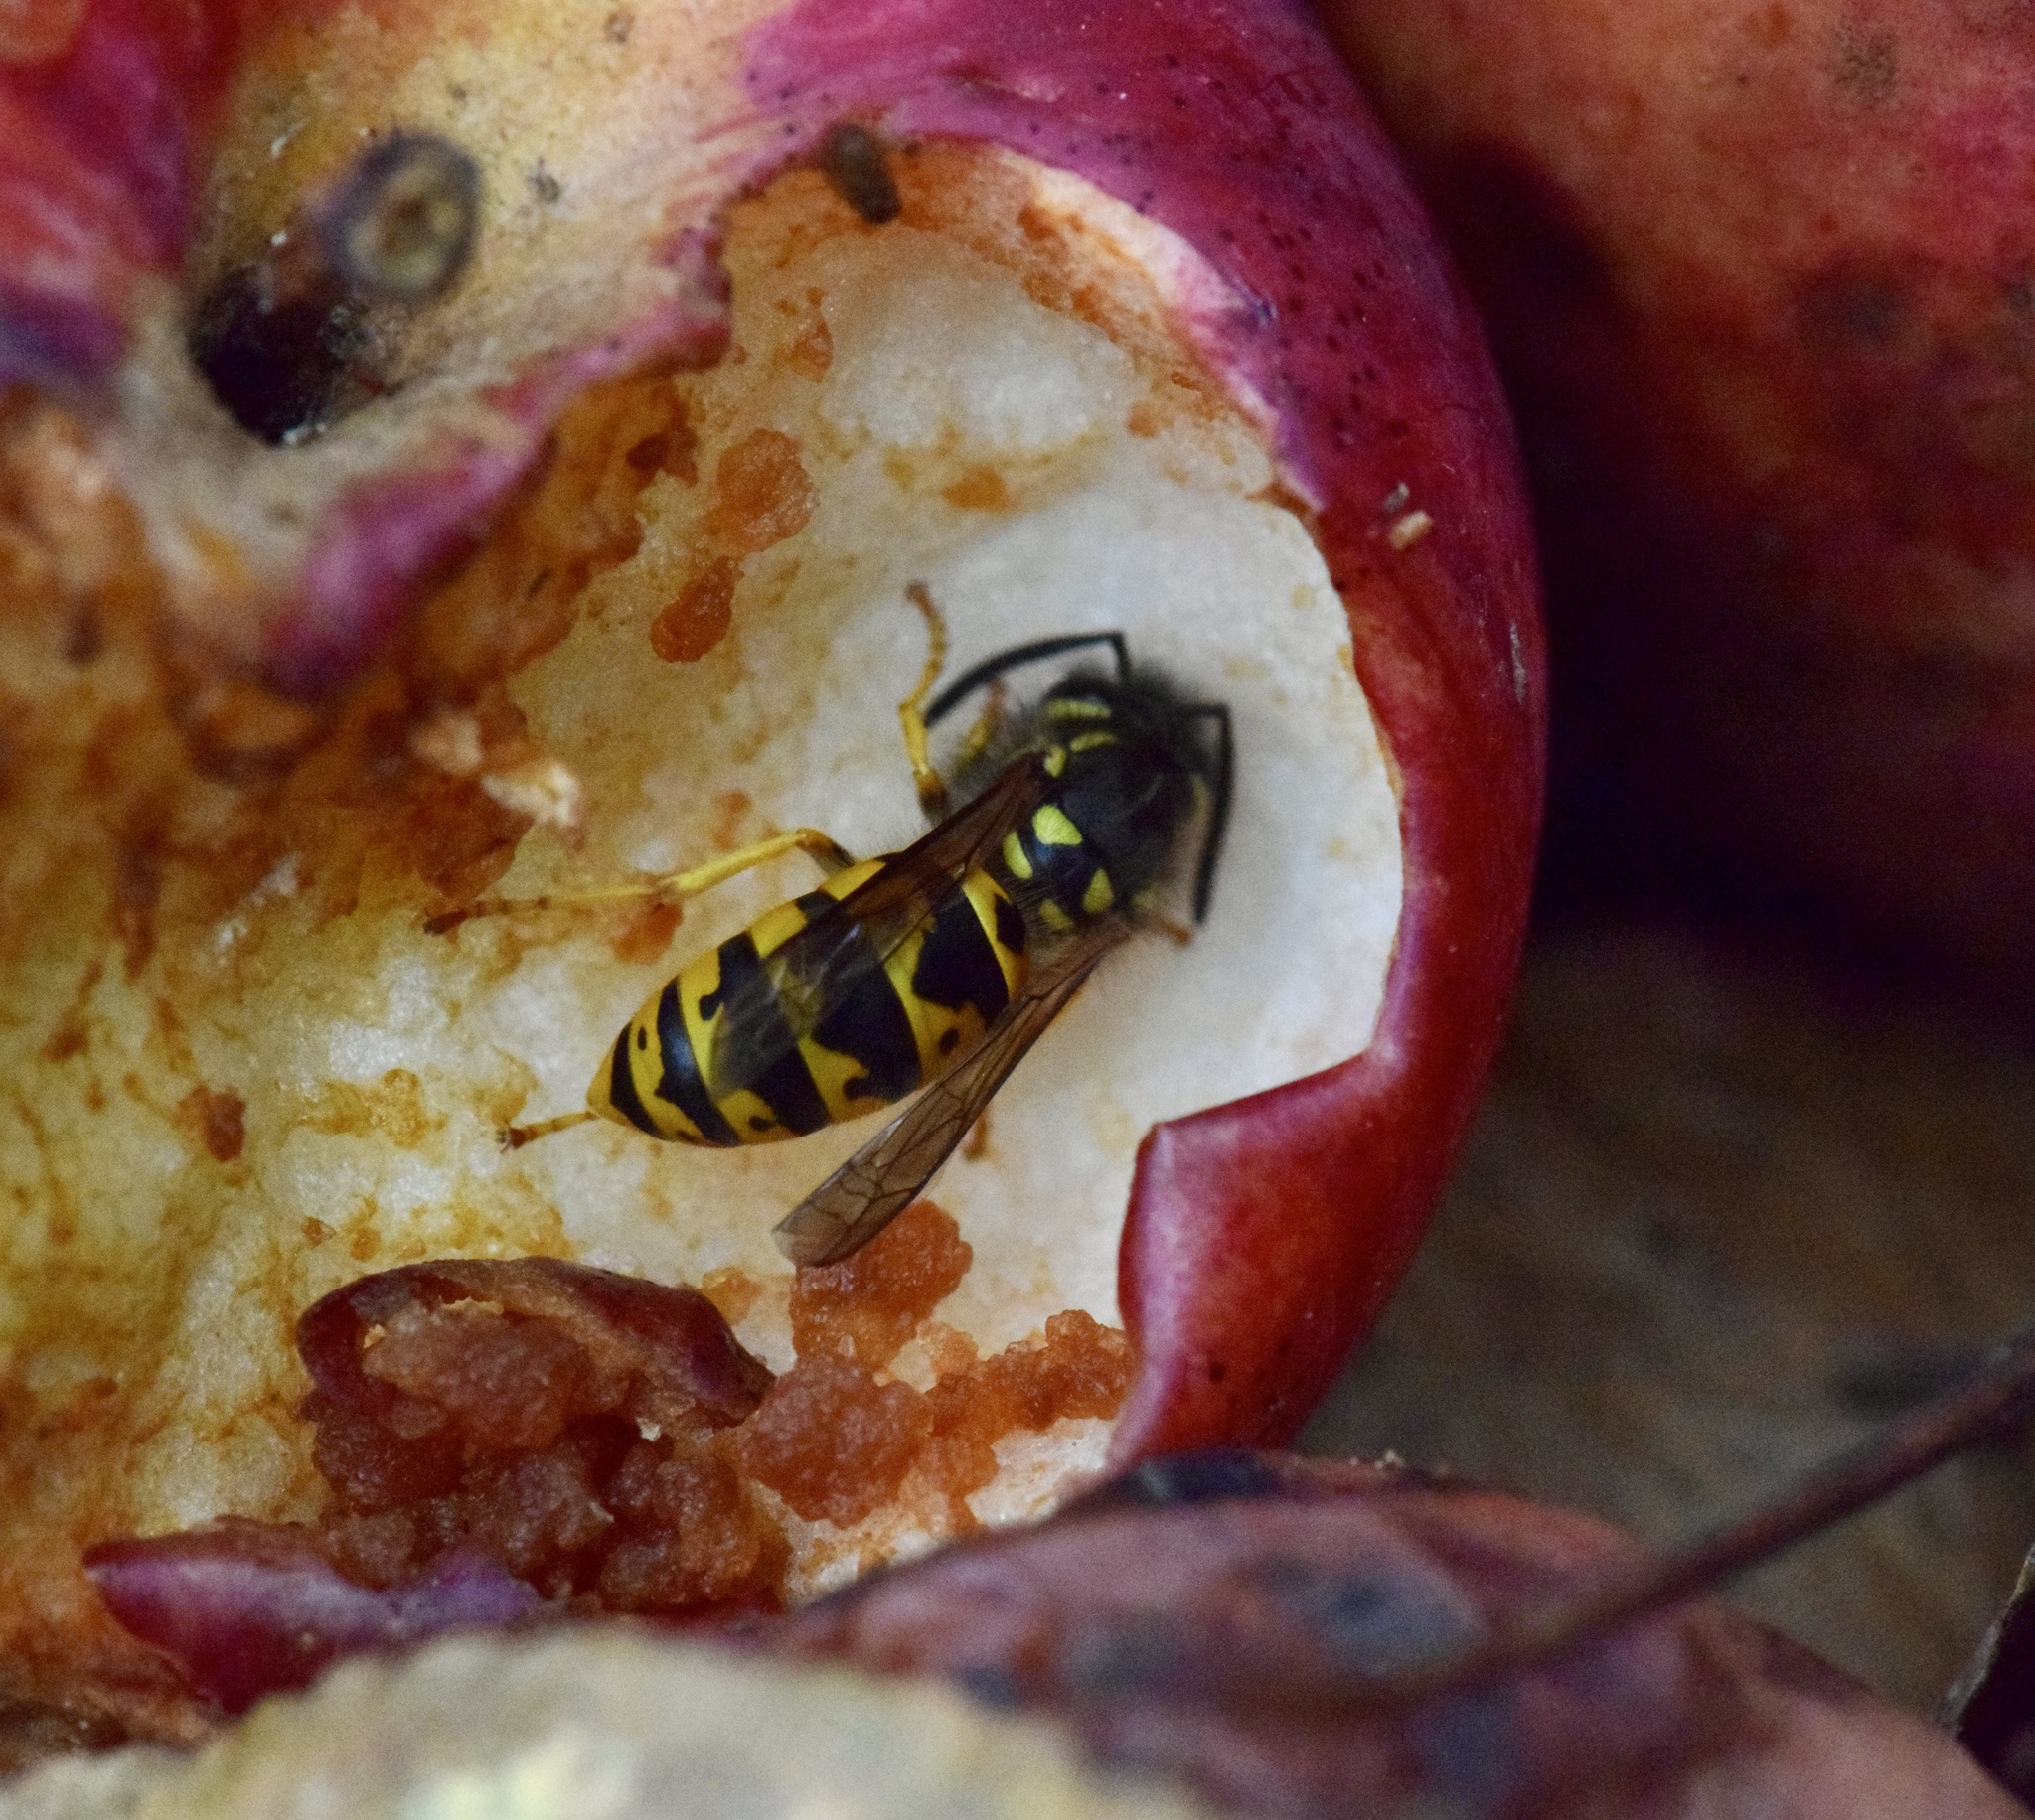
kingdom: Animalia
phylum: Arthropoda
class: Insecta
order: Hymenoptera
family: Vespidae
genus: Vespula
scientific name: Vespula germanica
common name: German wasp
